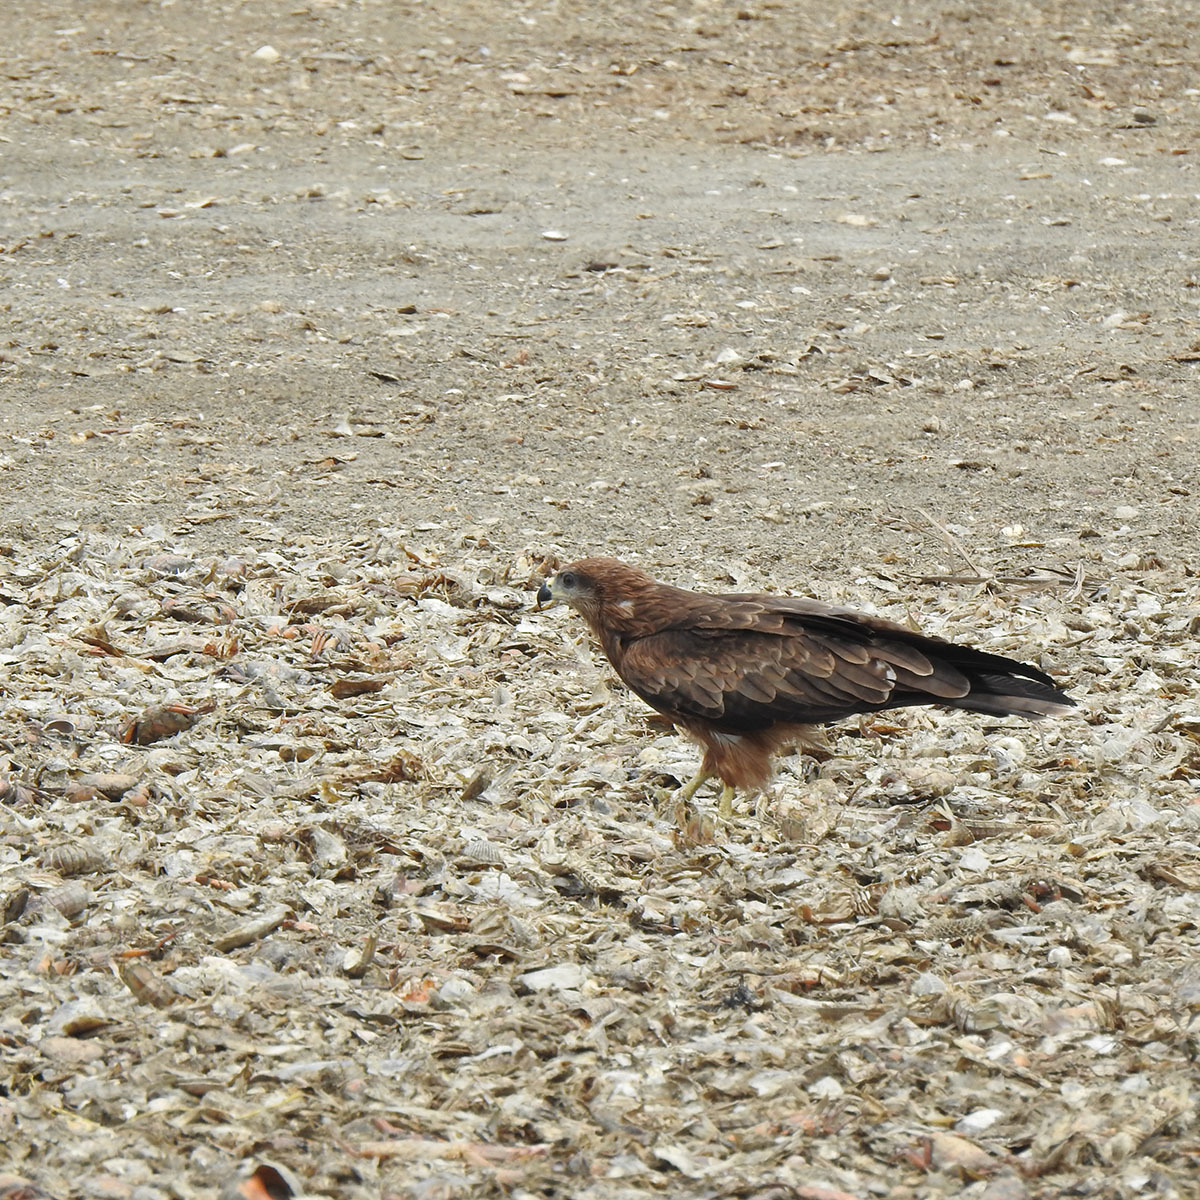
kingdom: Animalia
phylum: Chordata
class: Aves
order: Accipitriformes
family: Accipitridae
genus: Milvus
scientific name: Milvus migrans
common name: Black kite
